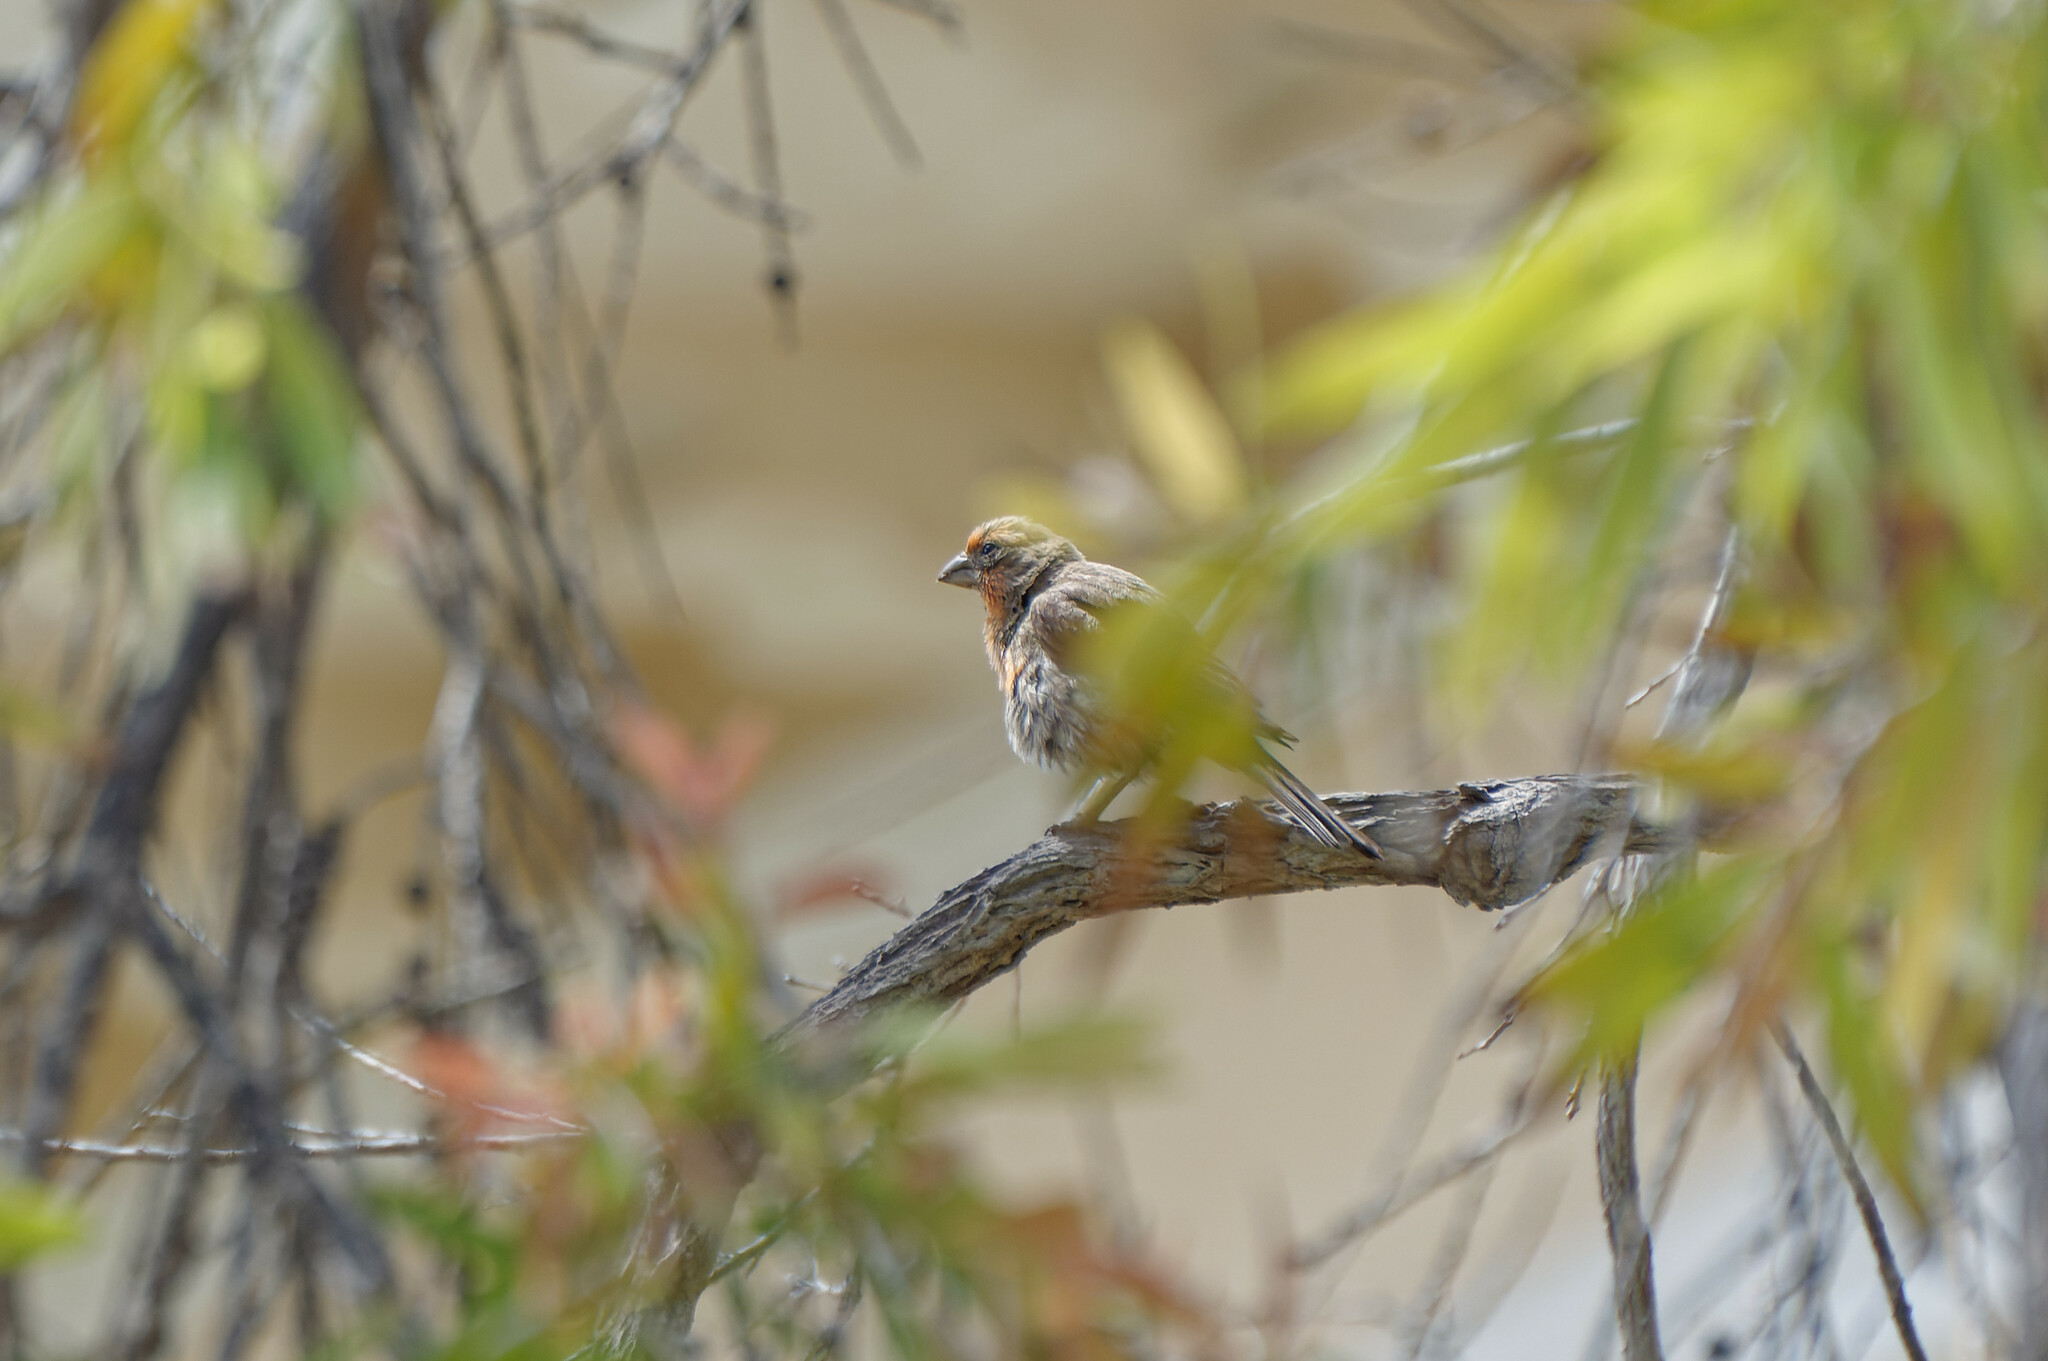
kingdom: Animalia
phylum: Chordata
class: Aves
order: Passeriformes
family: Fringillidae
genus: Haemorhous
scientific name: Haemorhous mexicanus
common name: House finch
